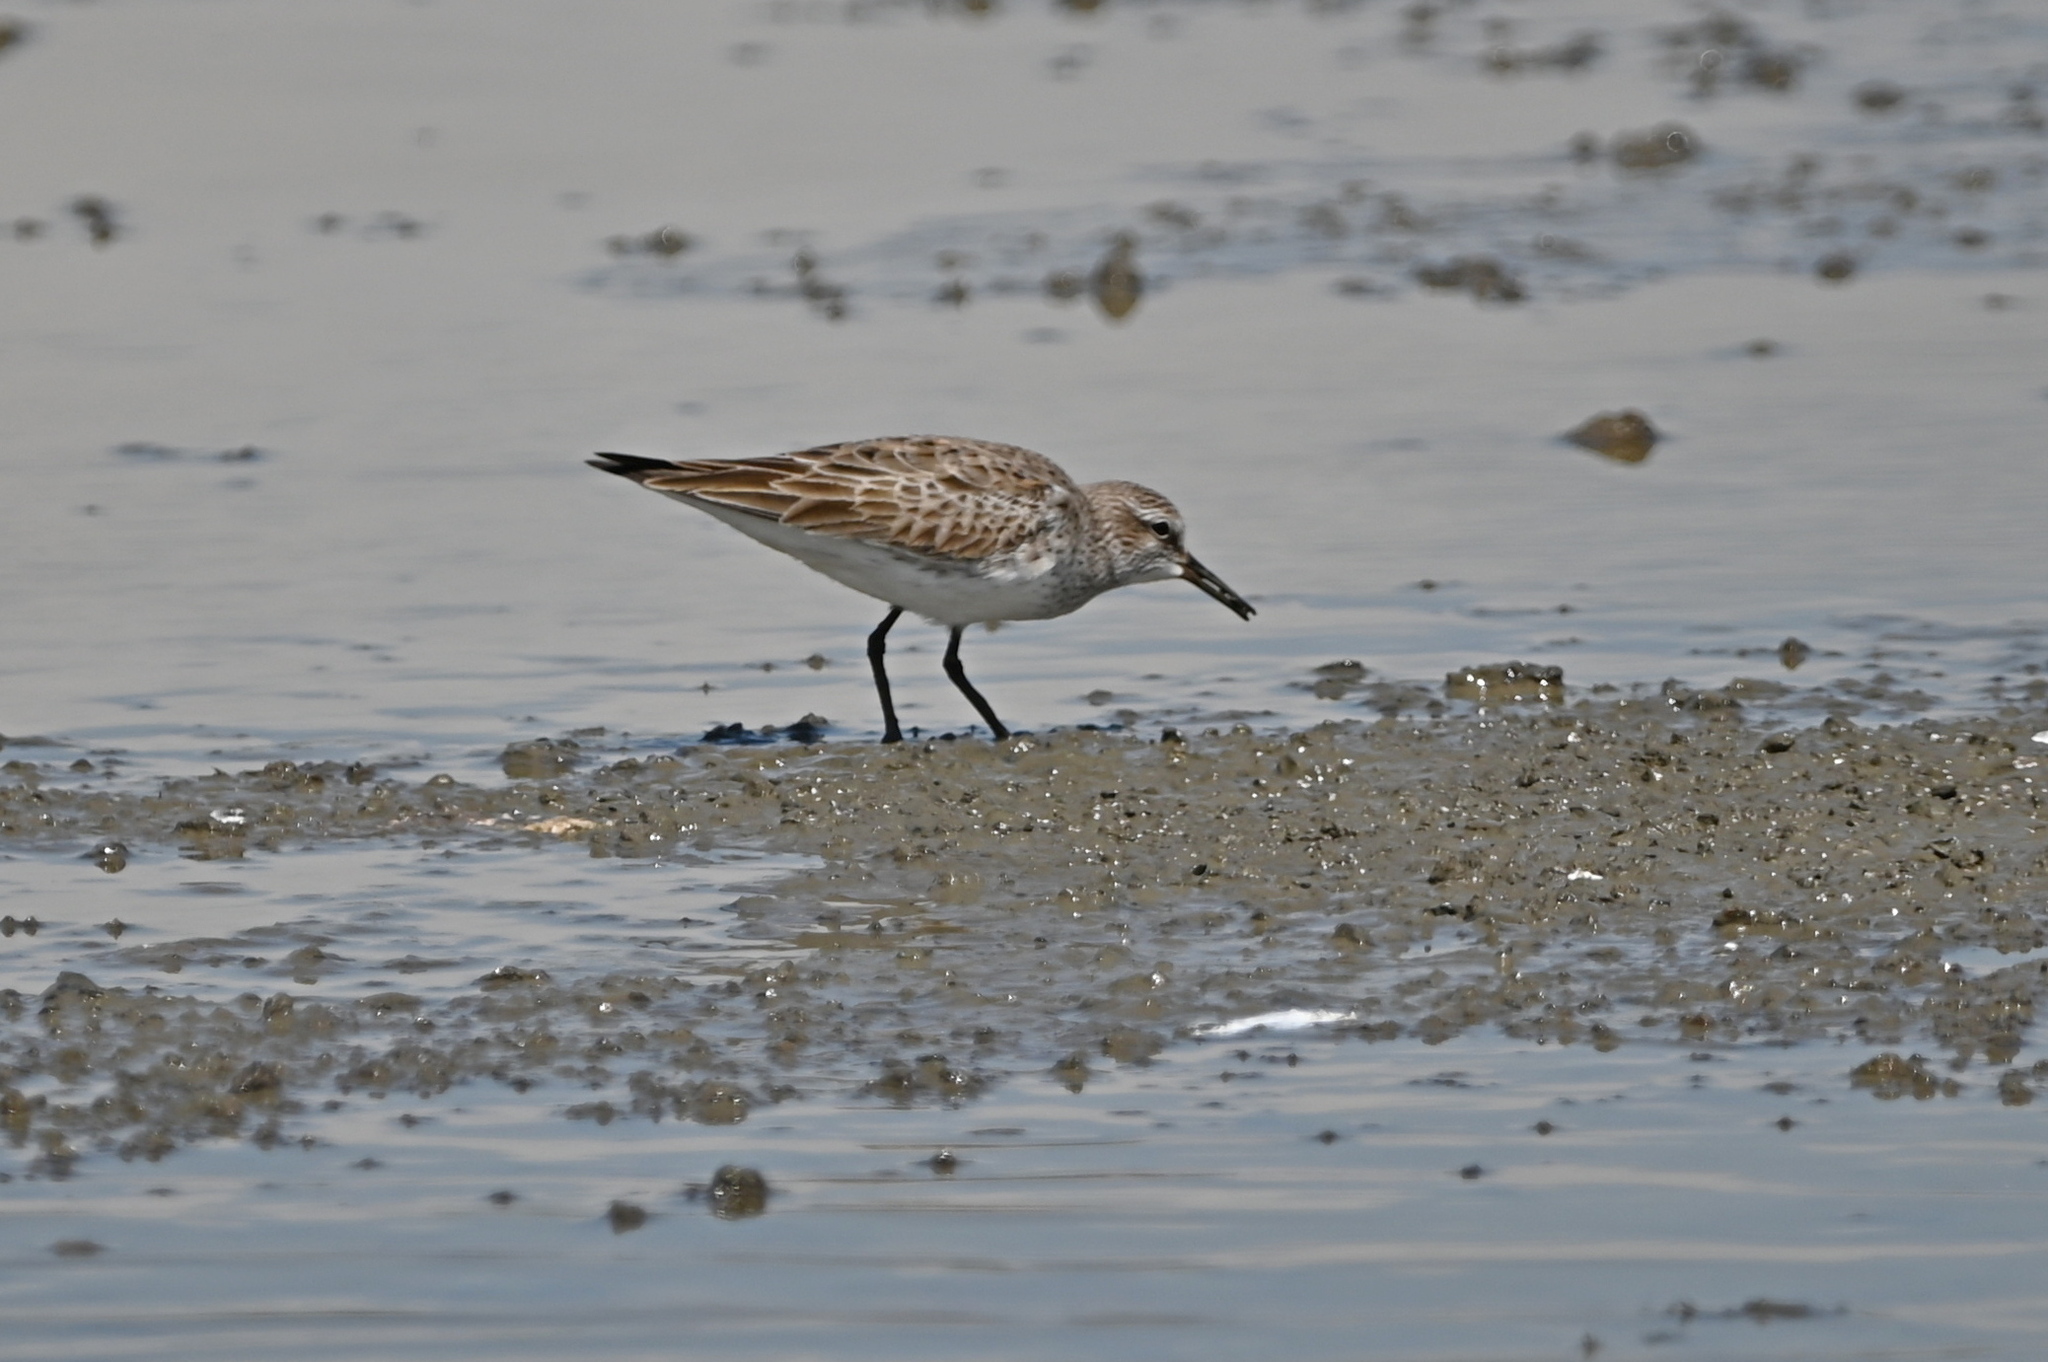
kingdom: Animalia
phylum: Chordata
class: Aves
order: Charadriiformes
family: Scolopacidae
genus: Calidris
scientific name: Calidris fuscicollis
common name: White-rumped sandpiper
